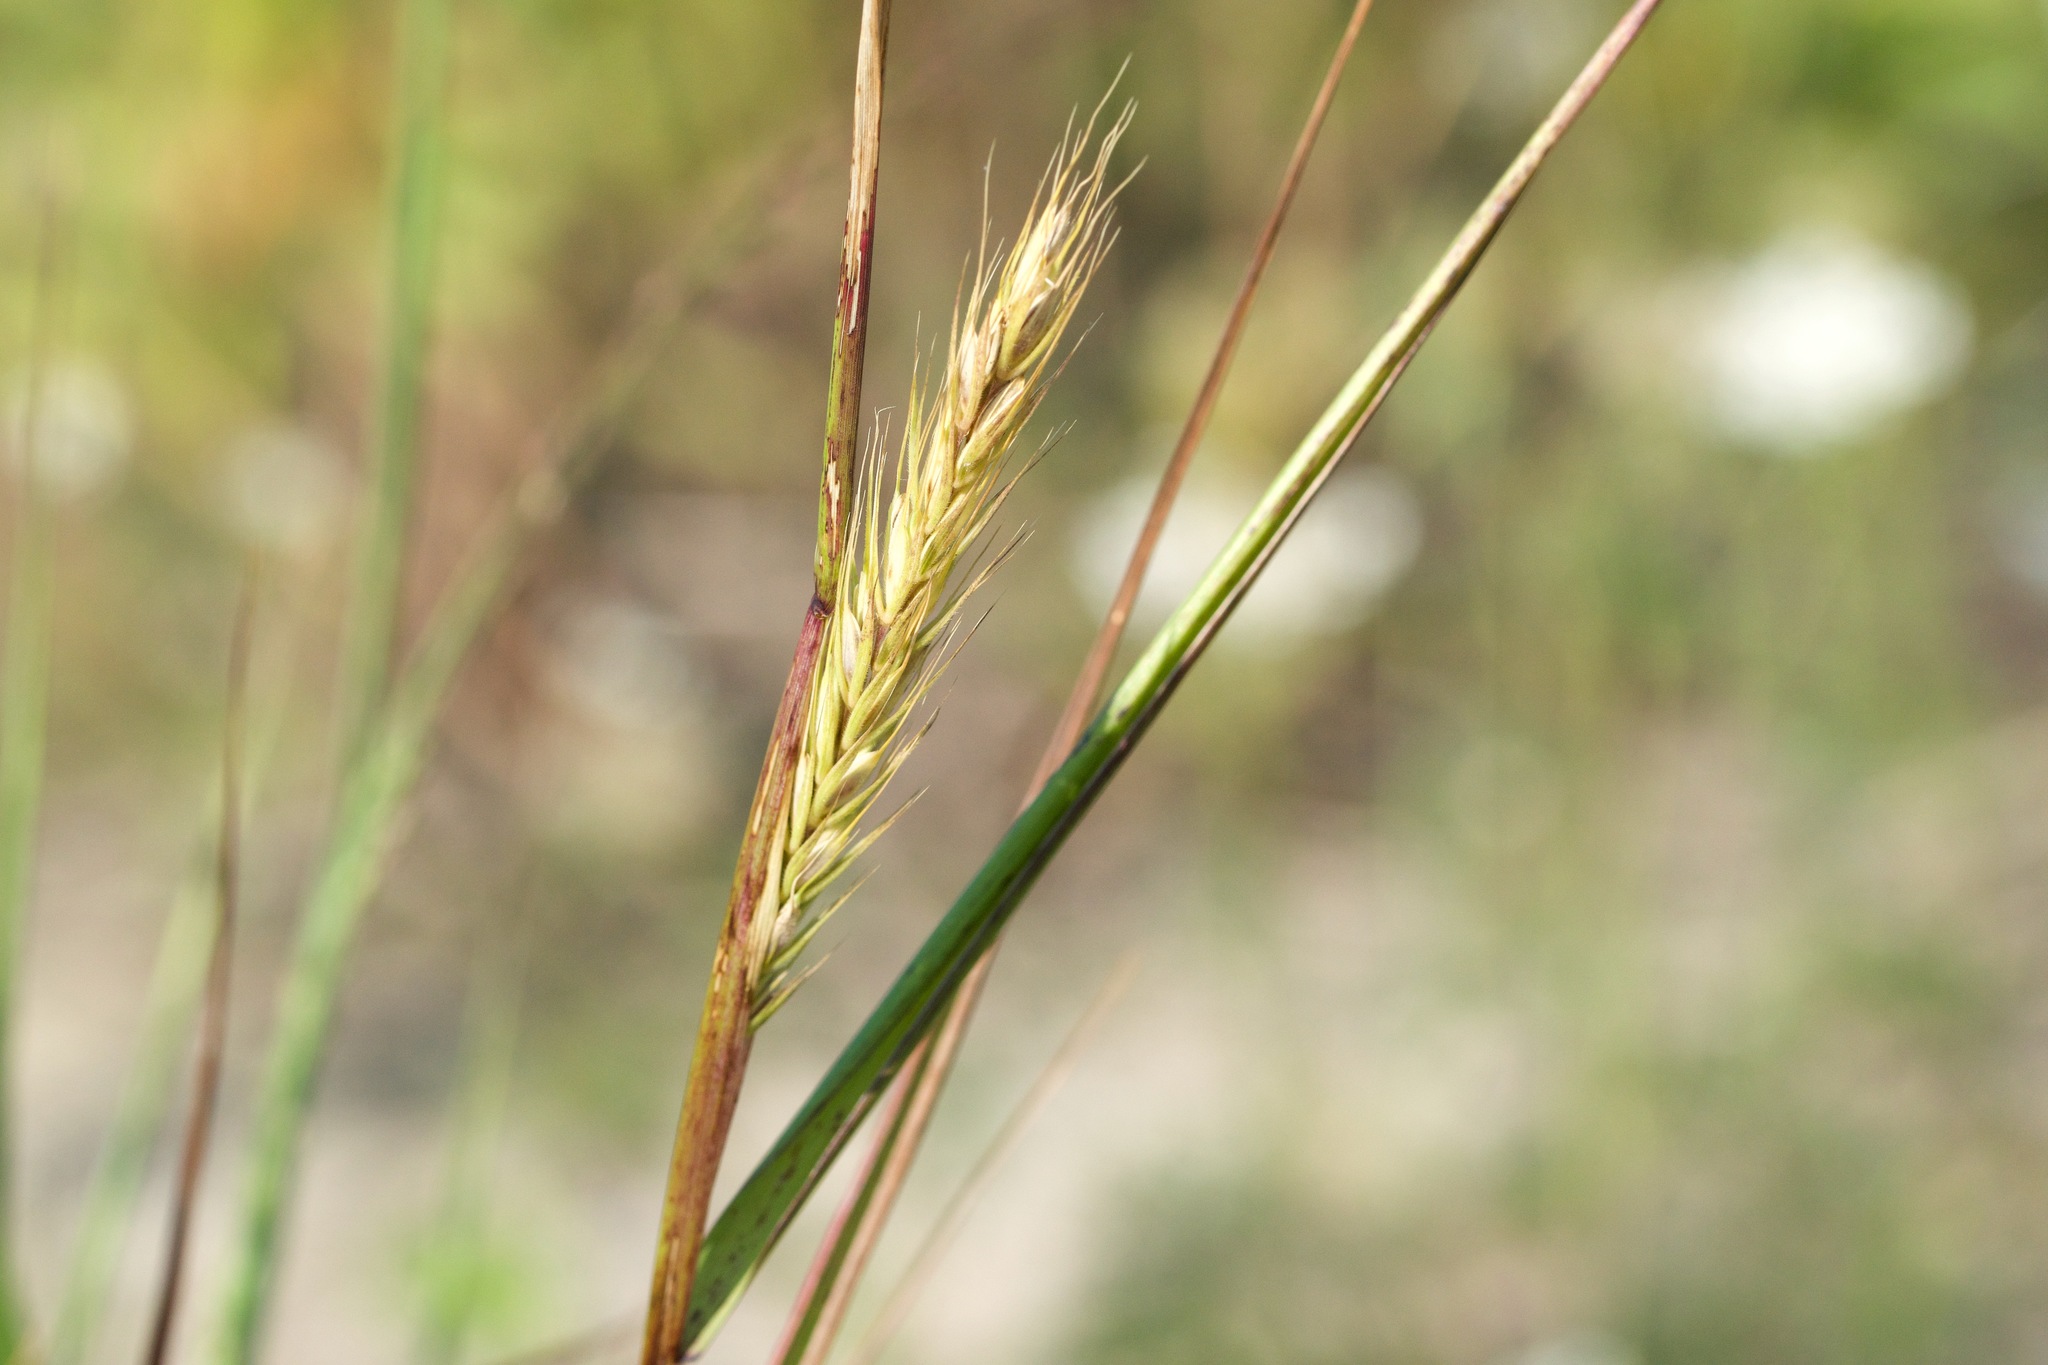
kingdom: Plantae
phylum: Tracheophyta
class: Liliopsida
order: Poales
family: Poaceae
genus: Elymus
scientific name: Elymus virginicus
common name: Common eastern wildrye
